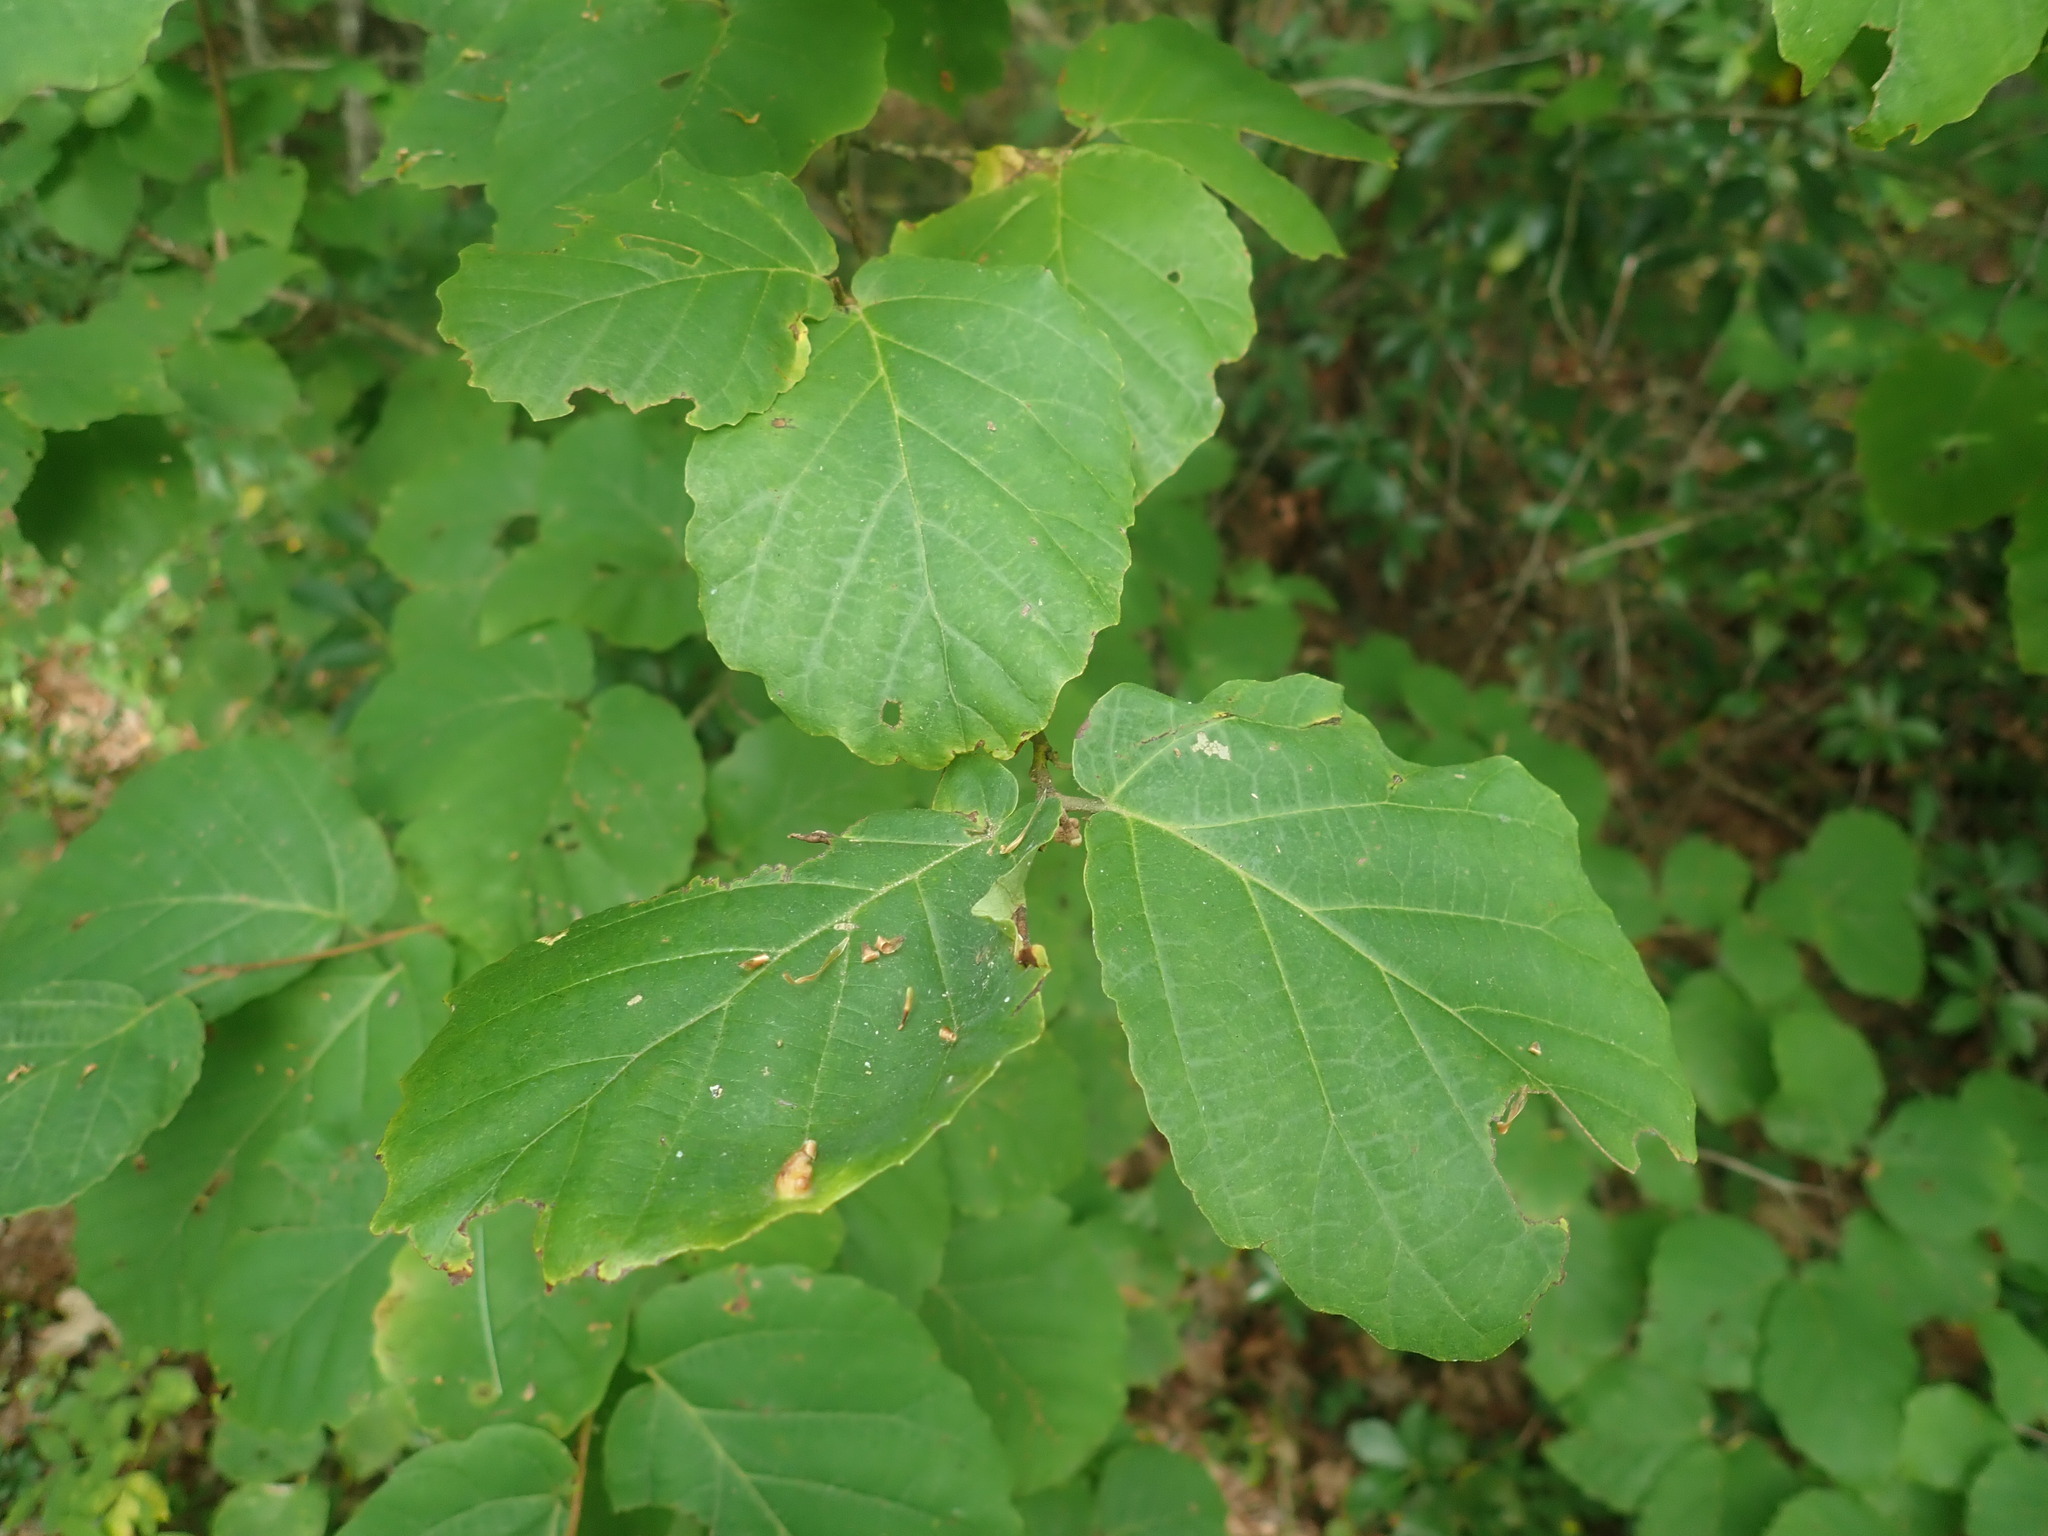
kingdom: Plantae
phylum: Tracheophyta
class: Magnoliopsida
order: Saxifragales
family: Hamamelidaceae
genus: Hamamelis
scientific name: Hamamelis virginiana
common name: Witch-hazel
